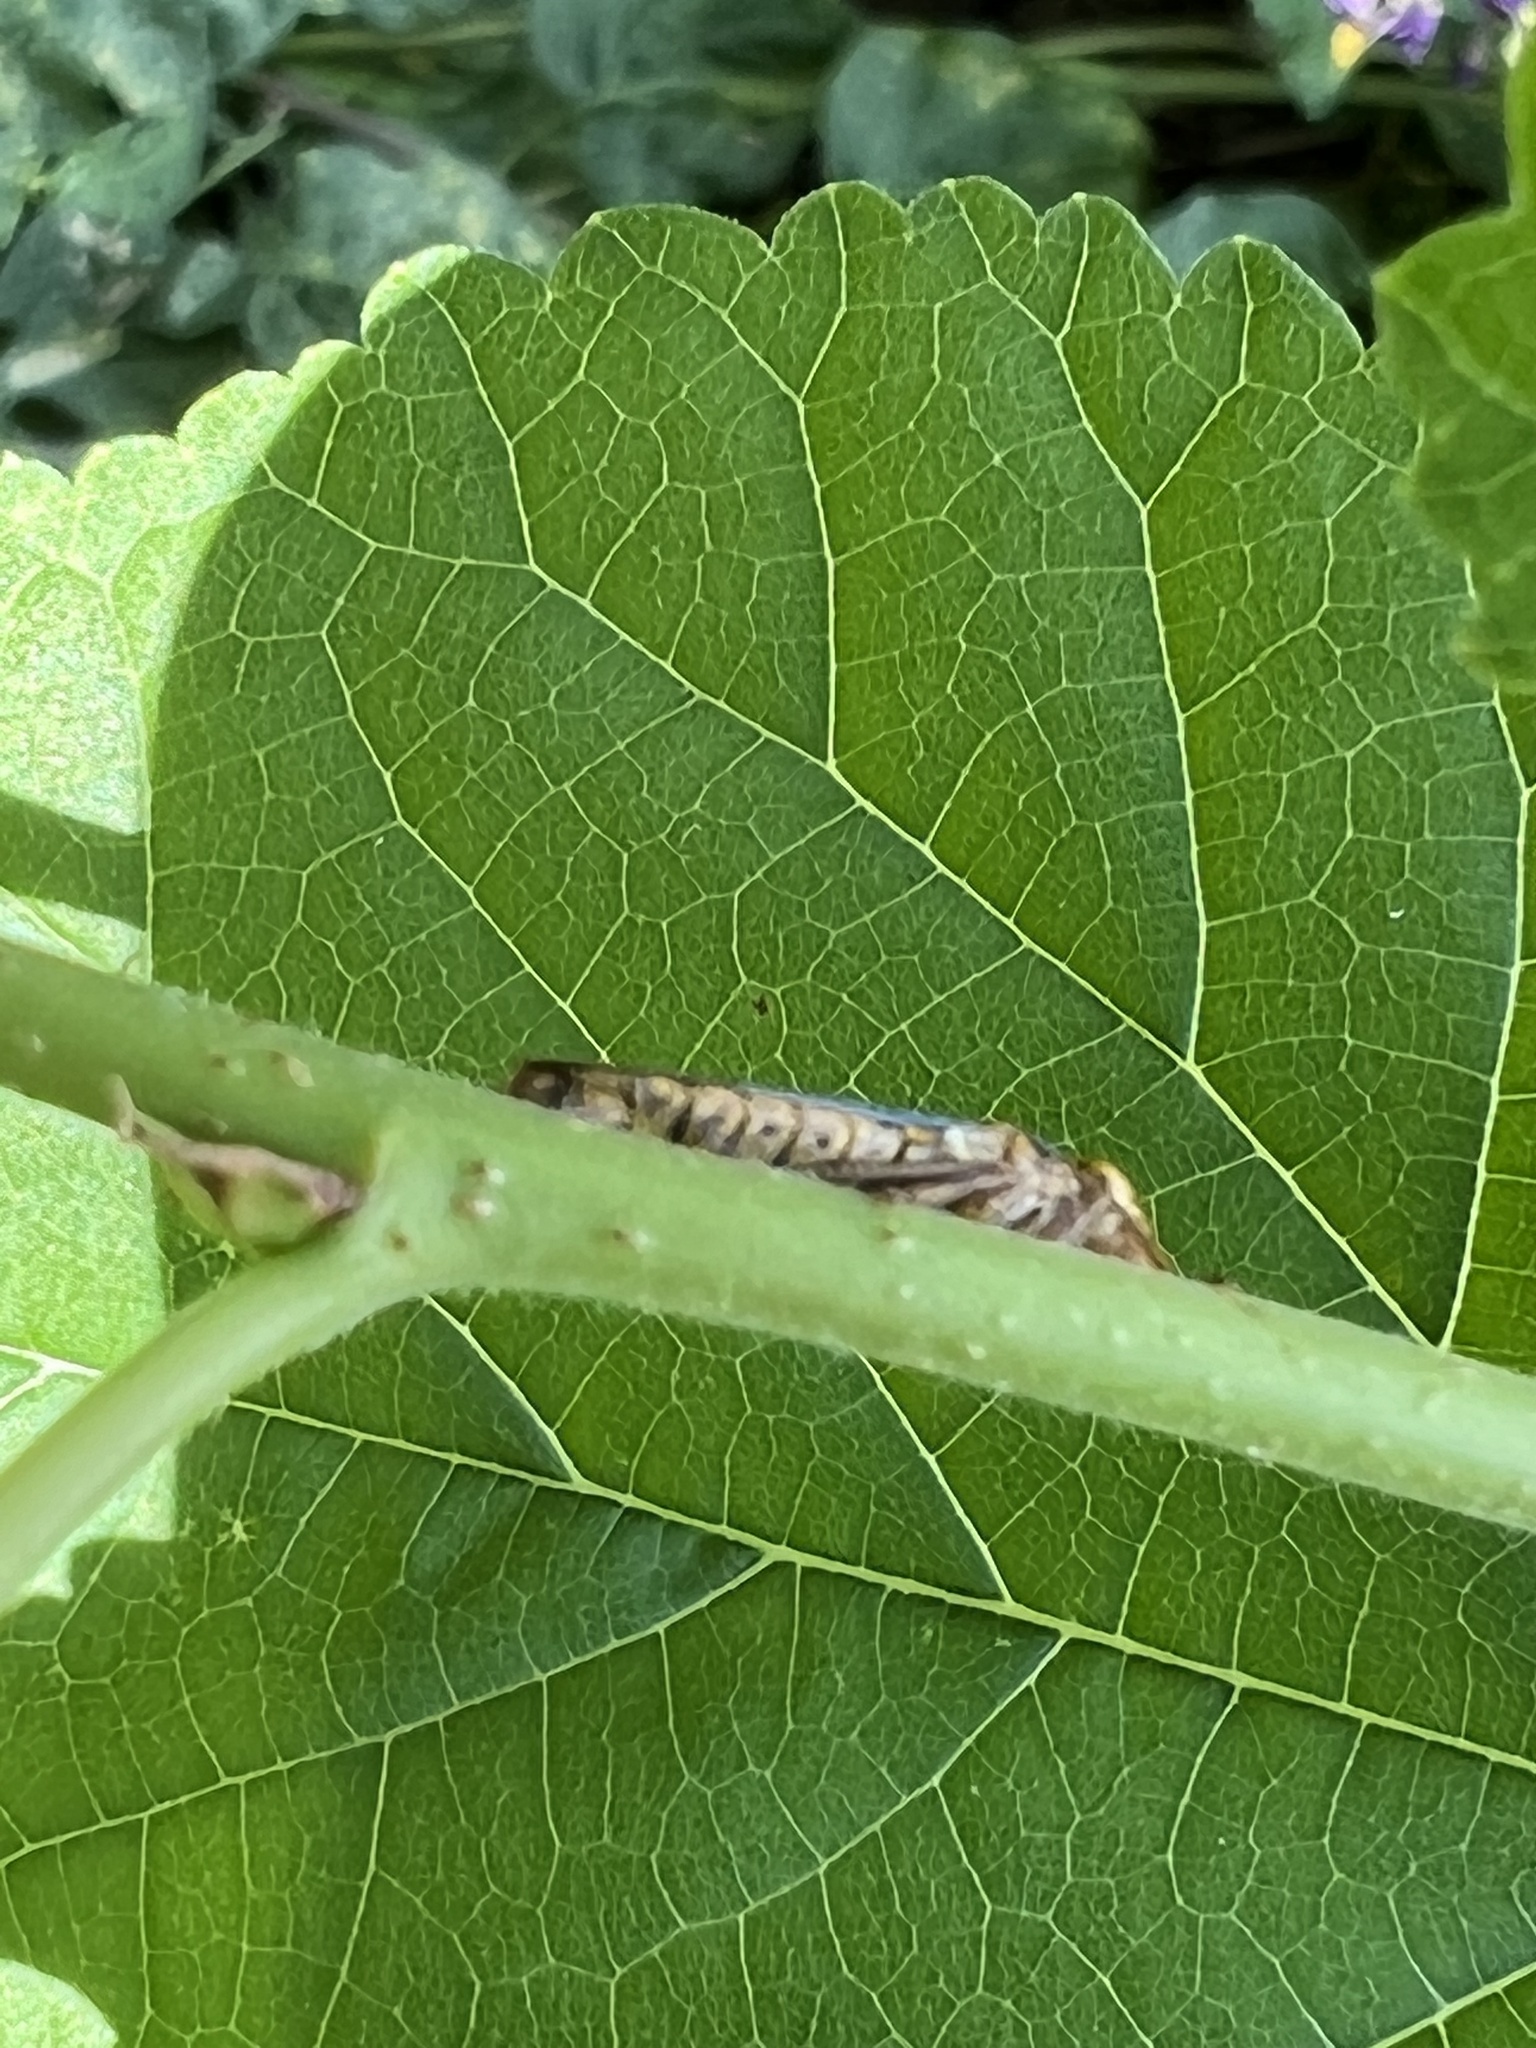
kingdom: Animalia
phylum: Arthropoda
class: Insecta
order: Hemiptera
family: Cicadellidae
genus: Oncometopia
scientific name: Oncometopia orbona
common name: Broad-headed sharpshooter
